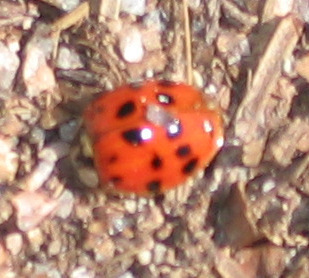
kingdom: Animalia
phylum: Arthropoda
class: Insecta
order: Coleoptera
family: Coccinellidae
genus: Harmonia
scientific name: Harmonia axyridis
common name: Harlequin ladybird
